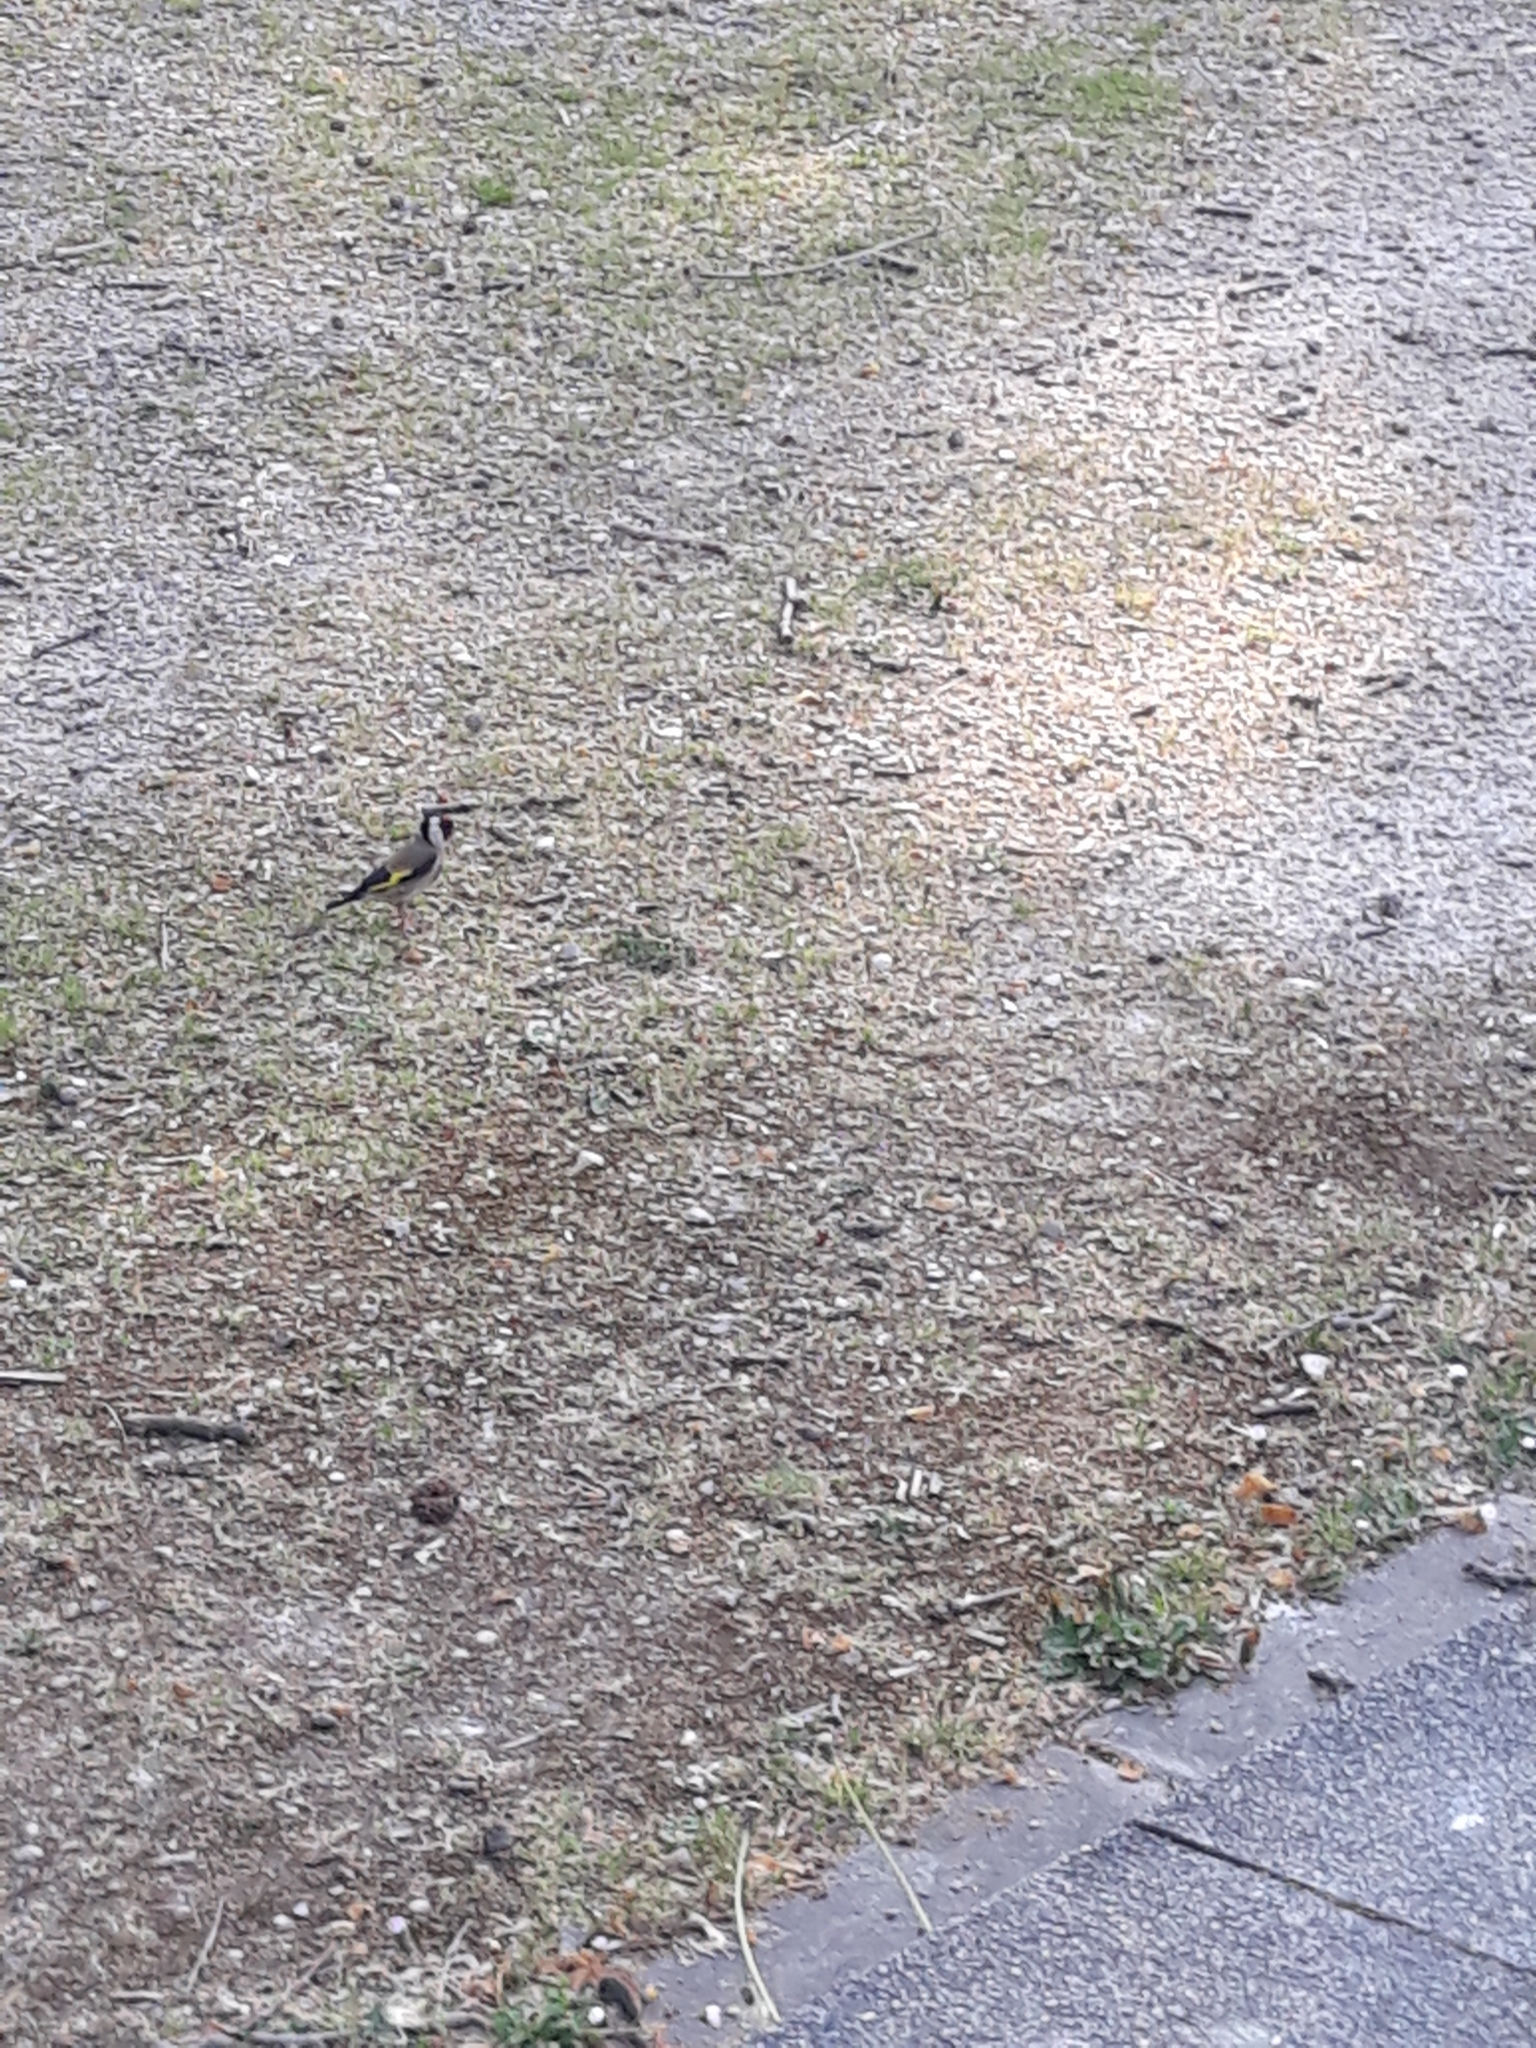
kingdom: Animalia
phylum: Chordata
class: Aves
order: Passeriformes
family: Fringillidae
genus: Carduelis
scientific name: Carduelis carduelis
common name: European goldfinch
